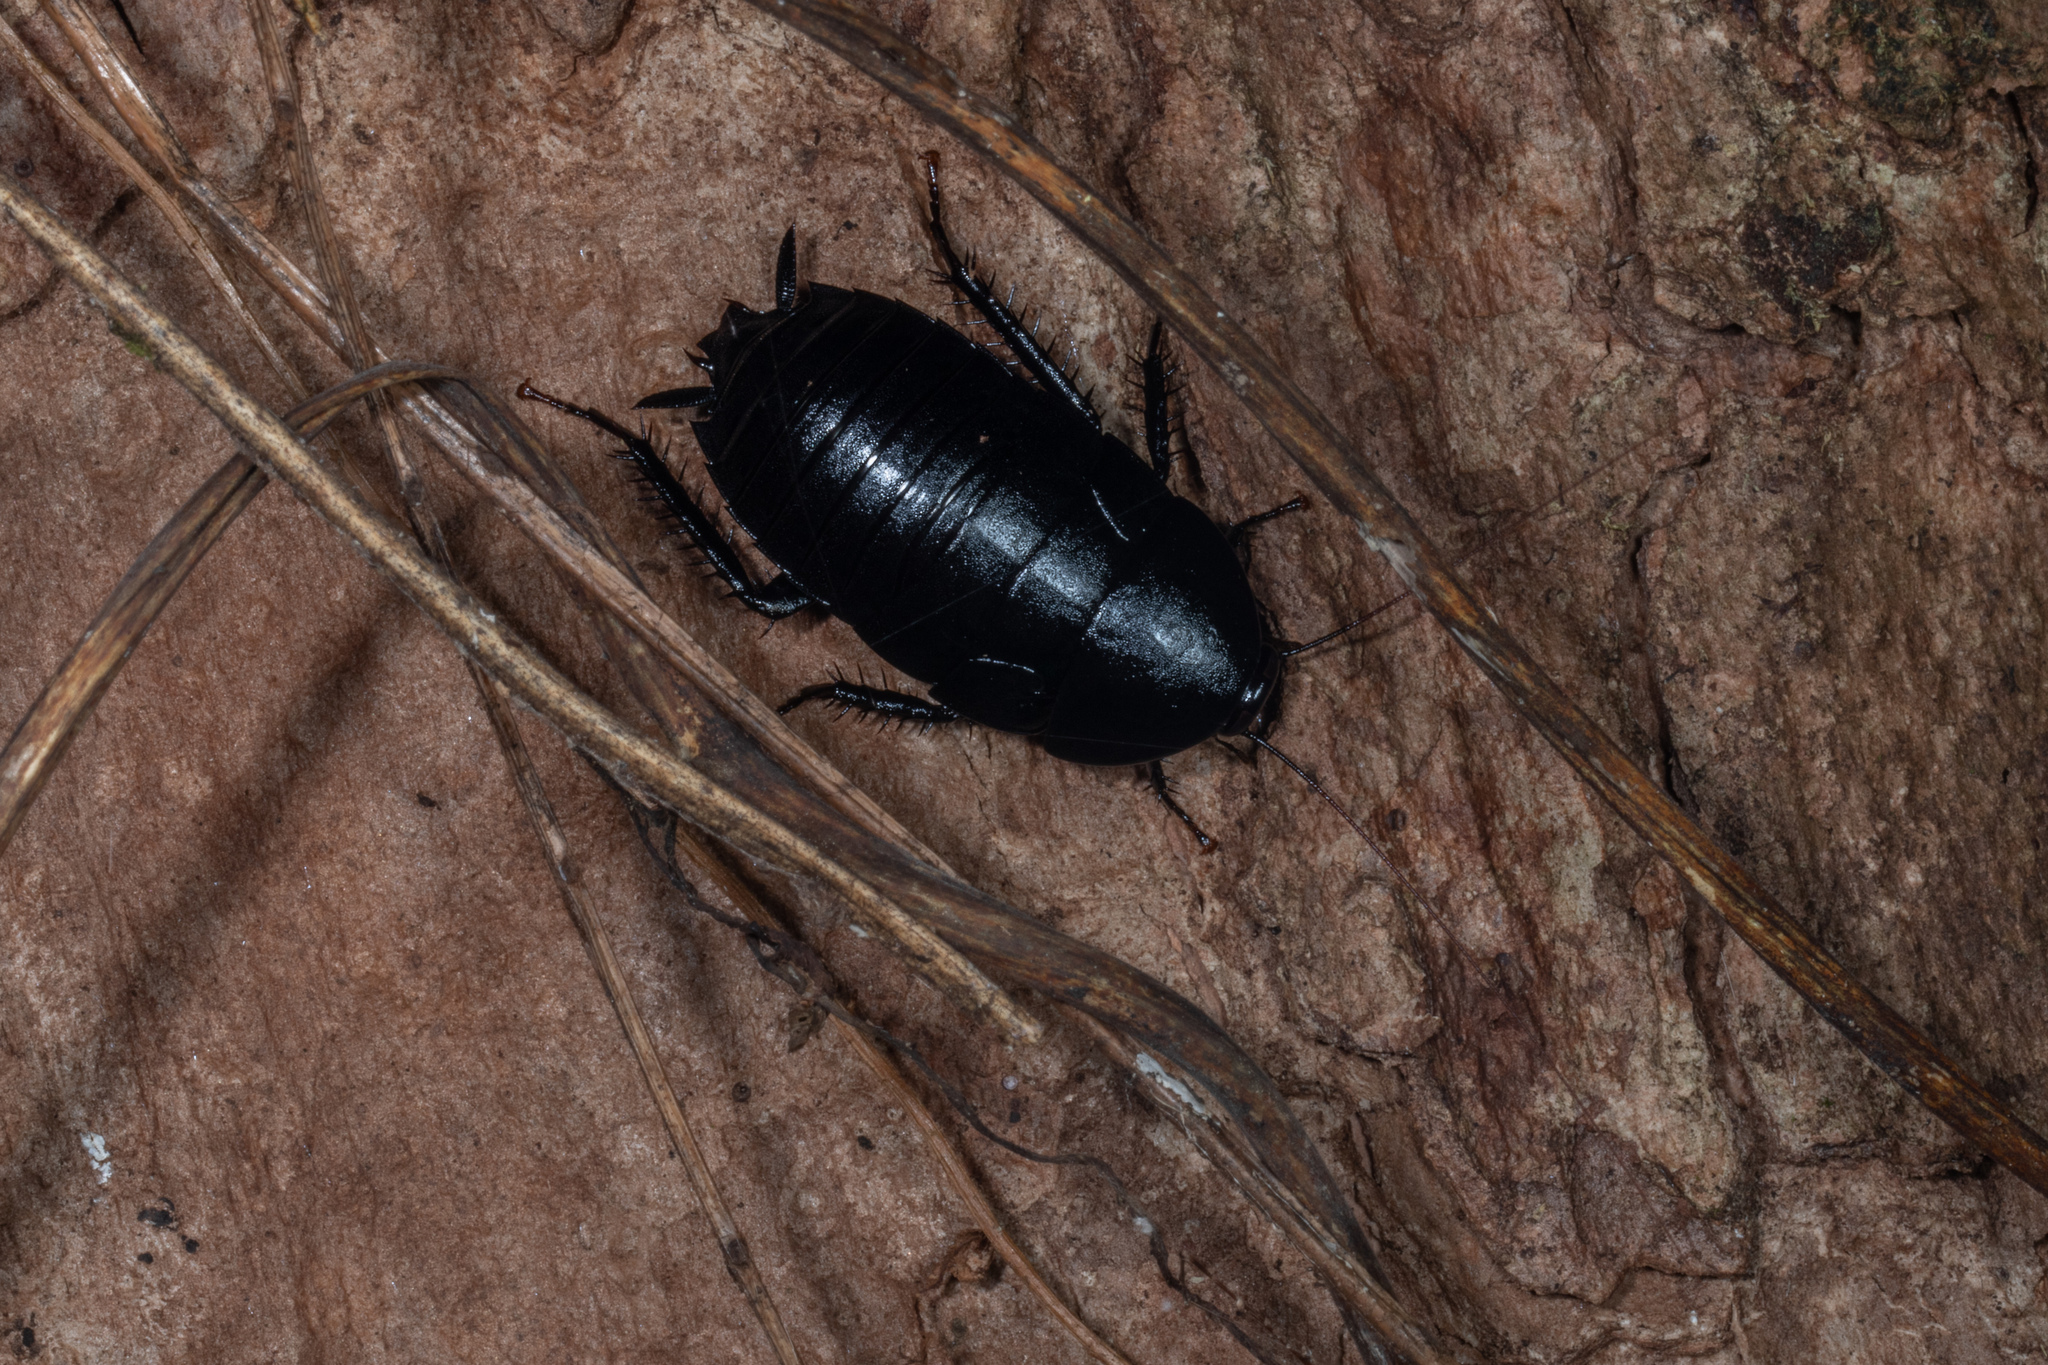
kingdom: Animalia
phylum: Arthropoda
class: Insecta
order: Blattodea
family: Blattidae
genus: Melanozosteria
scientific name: Melanozosteria nitida
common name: Black cockroach
